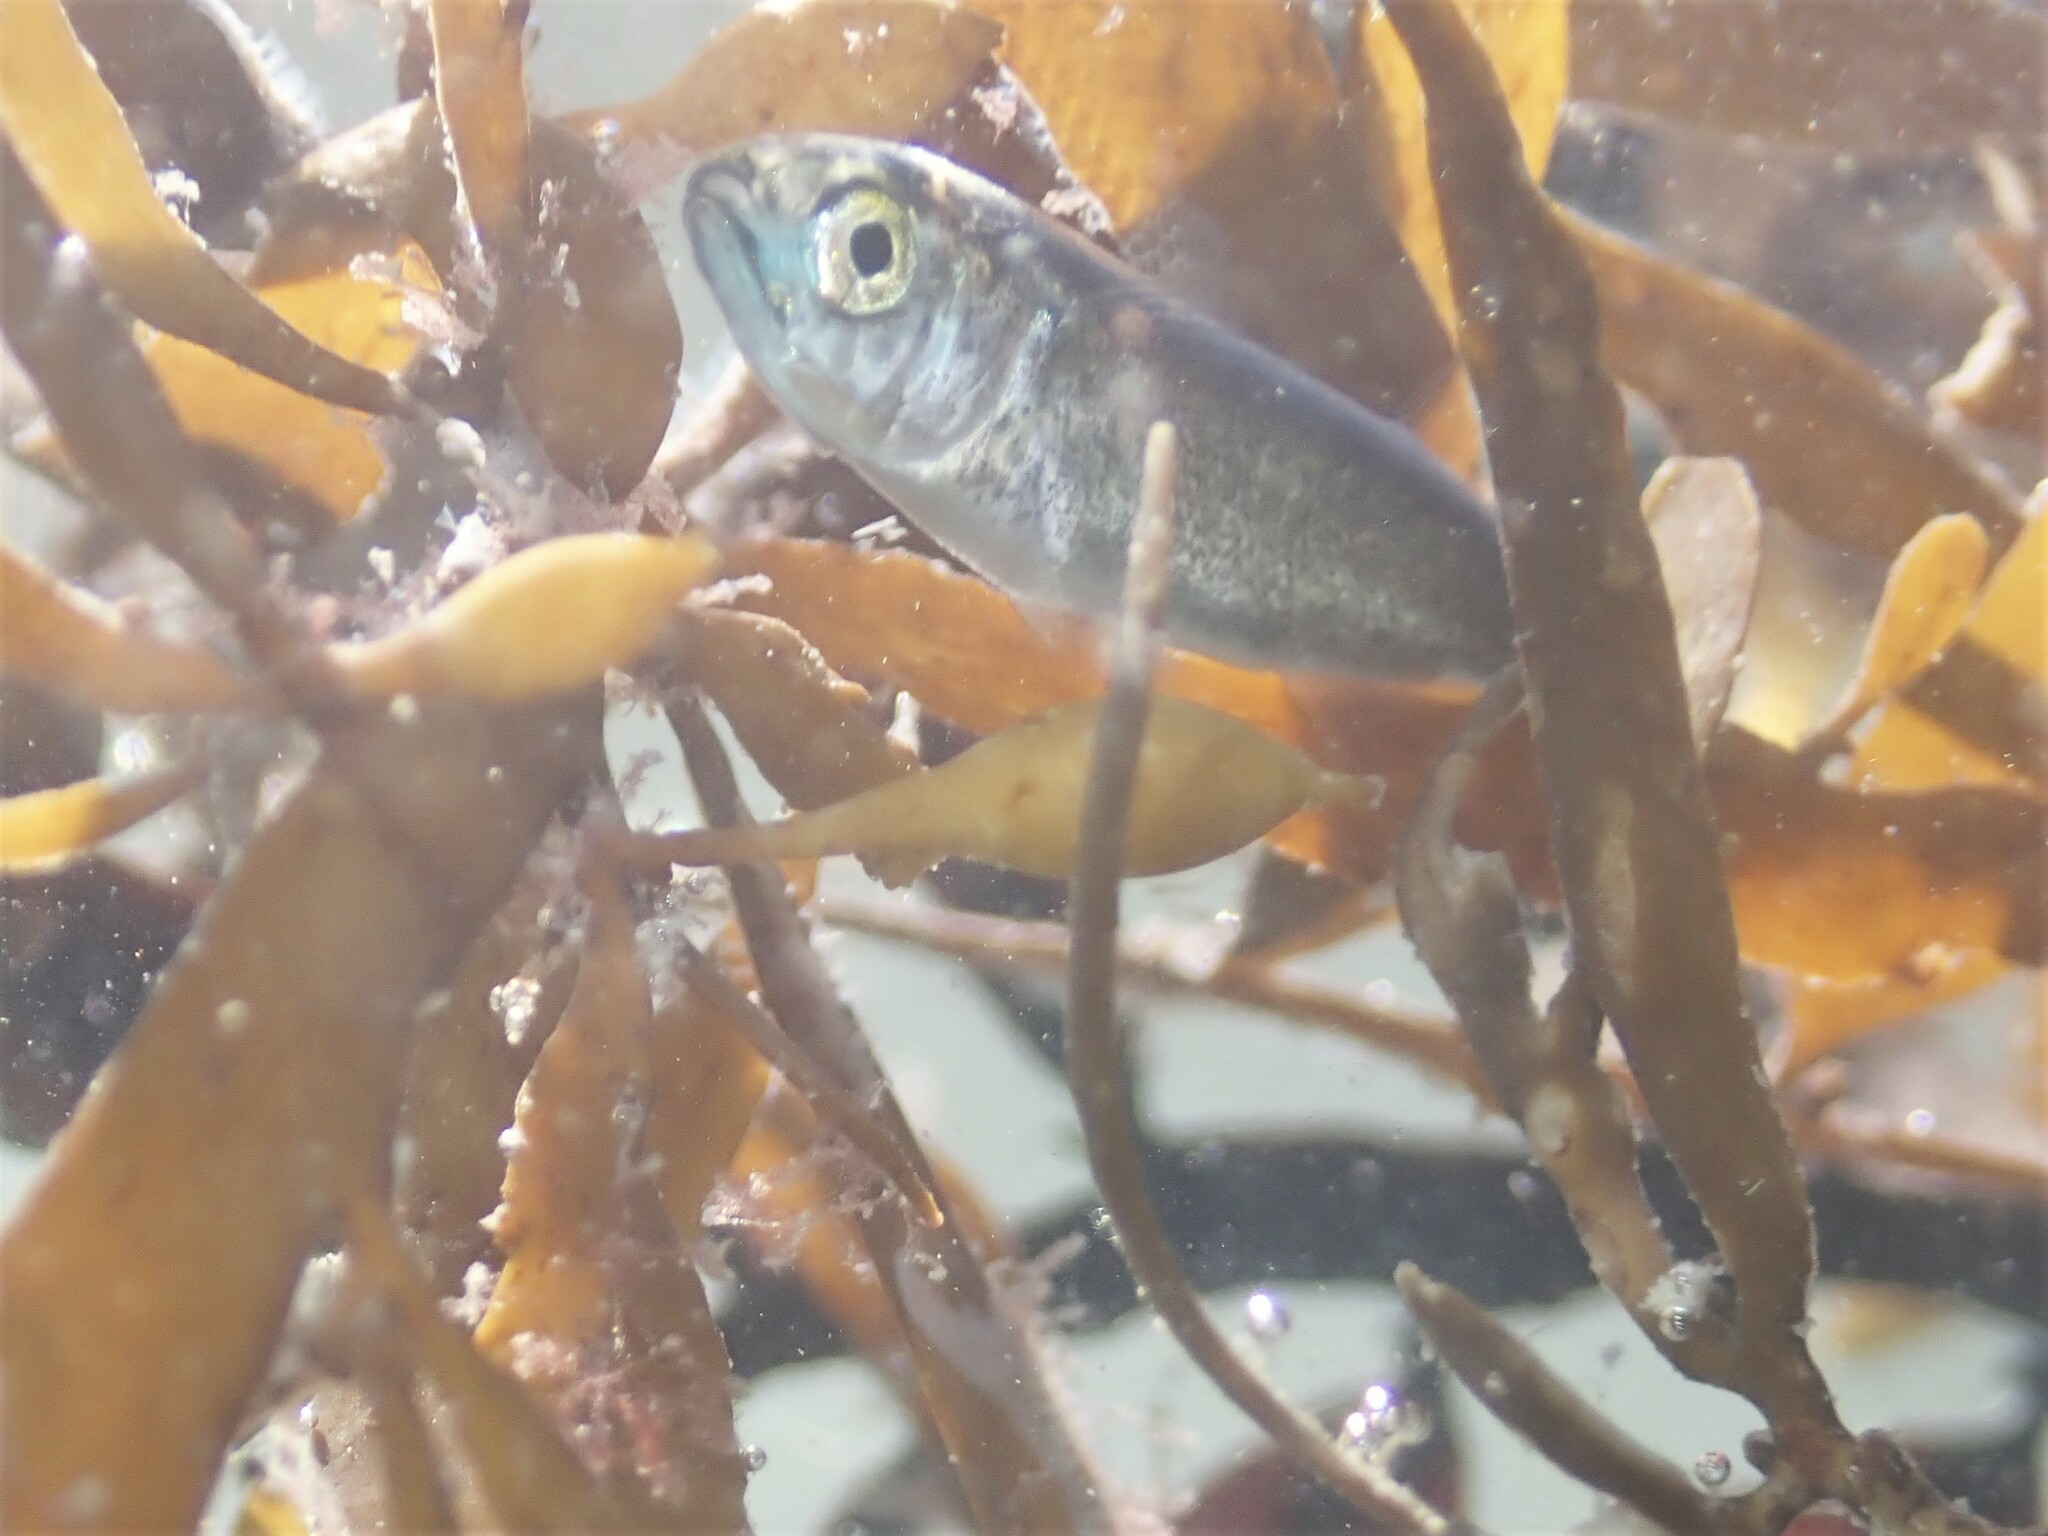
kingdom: Animalia
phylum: Chordata
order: Mugiliformes
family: Mugilidae
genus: Aldrichetta
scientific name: Aldrichetta forsteri
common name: Yellow-eye mullet
